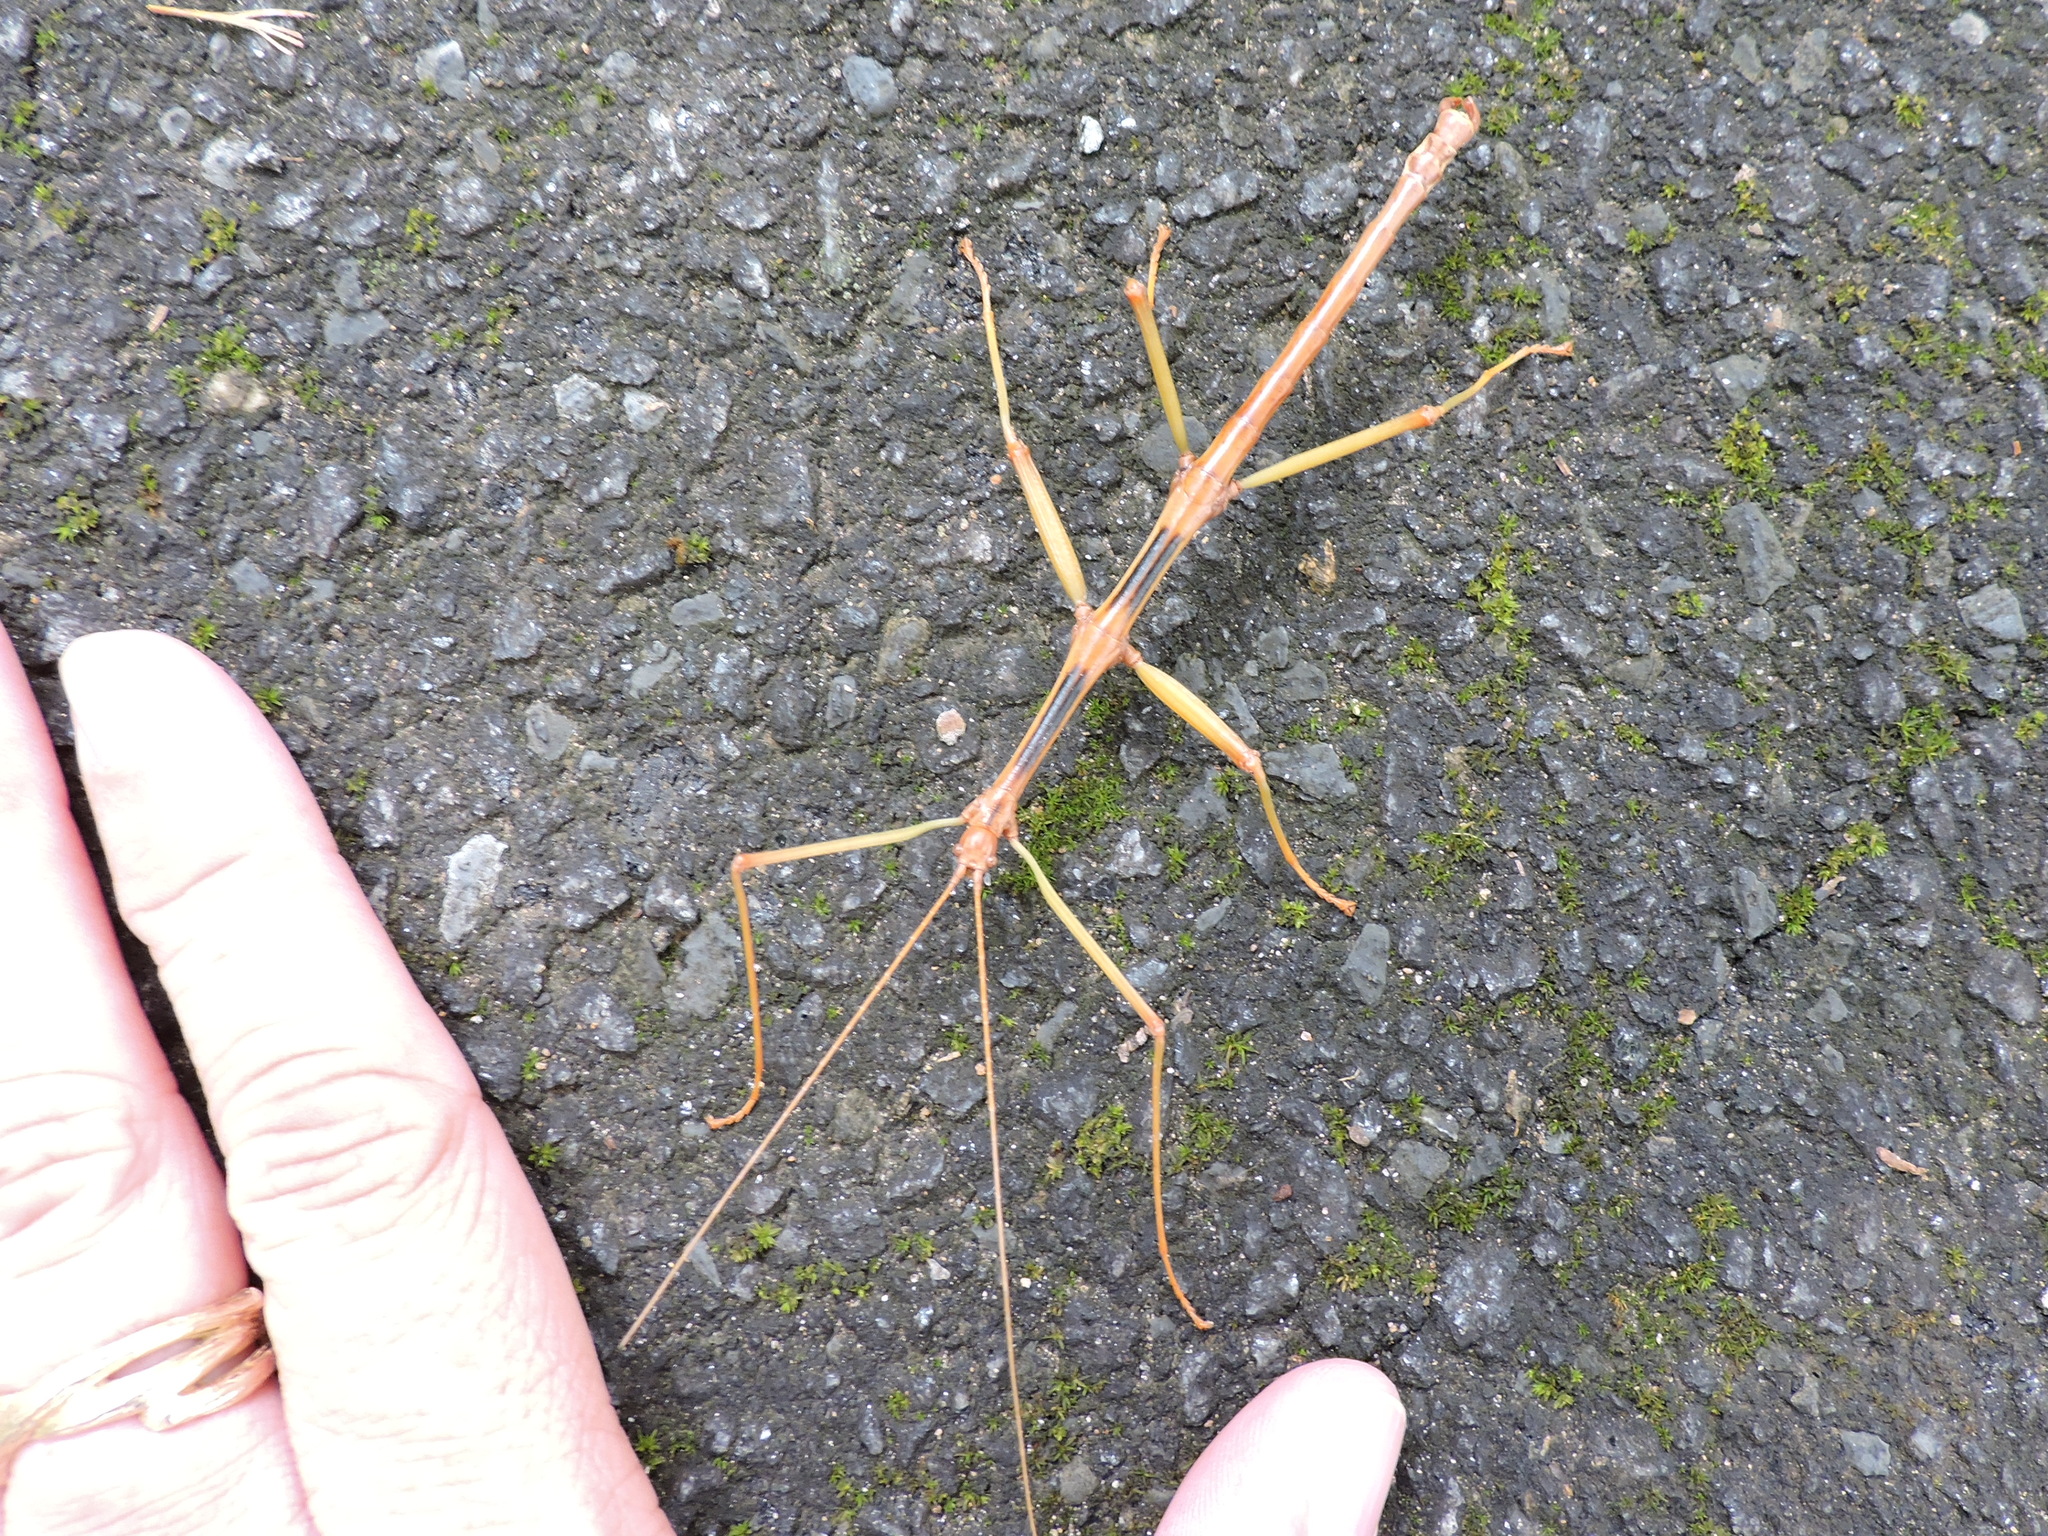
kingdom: Animalia
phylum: Arthropoda
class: Insecta
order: Phasmida
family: Diapheromeridae
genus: Diapheromera
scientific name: Diapheromera carolina
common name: Carolina walkingstick
